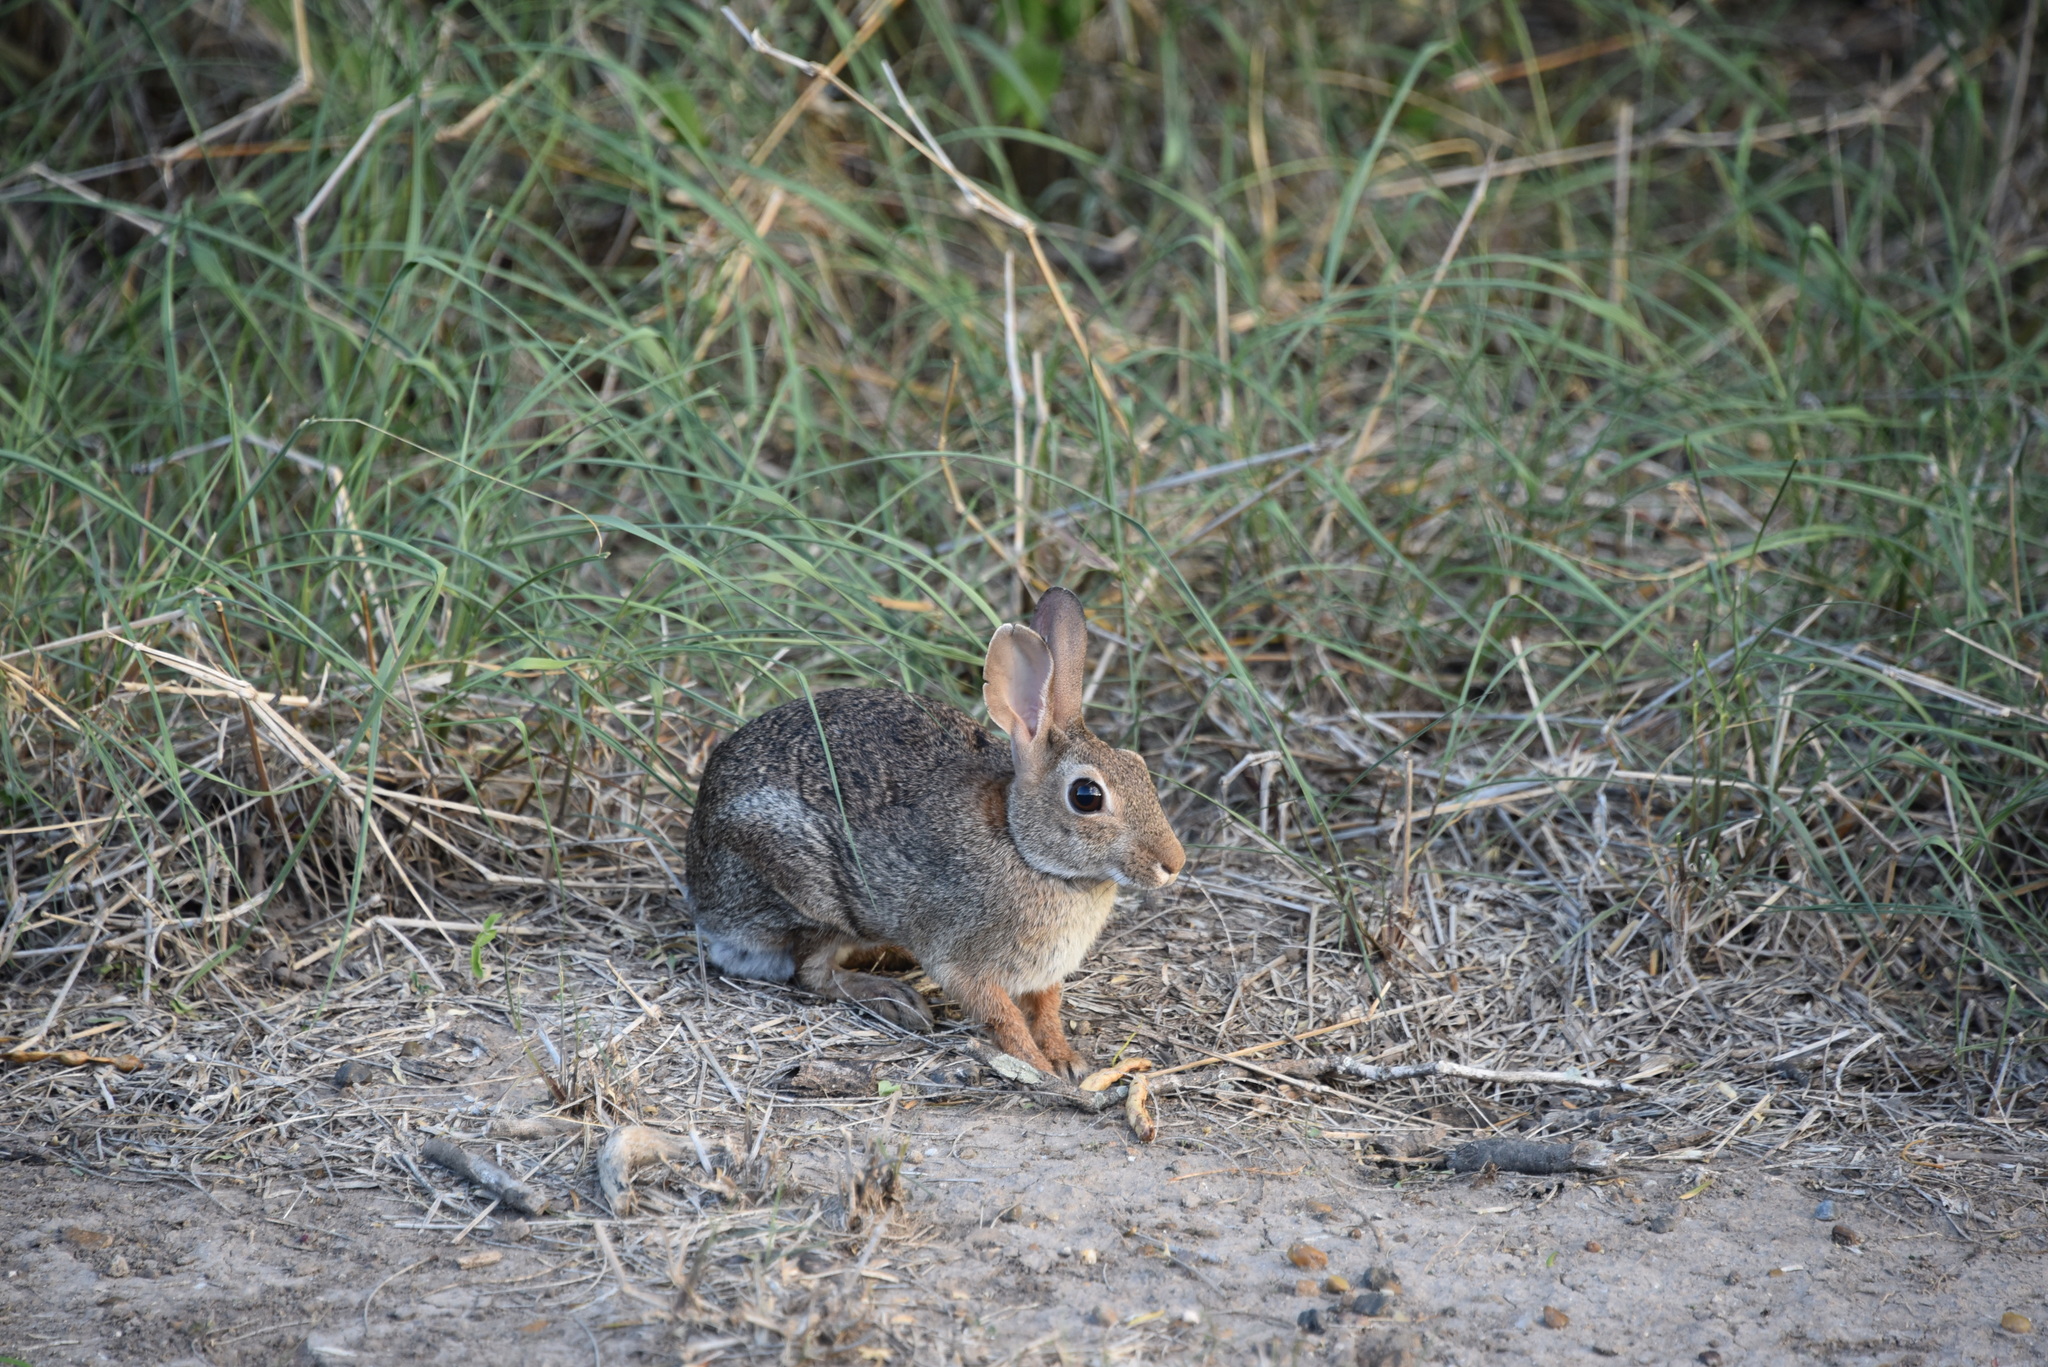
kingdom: Animalia
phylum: Chordata
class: Mammalia
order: Lagomorpha
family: Leporidae
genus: Sylvilagus
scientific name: Sylvilagus floridanus
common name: Eastern cottontail
